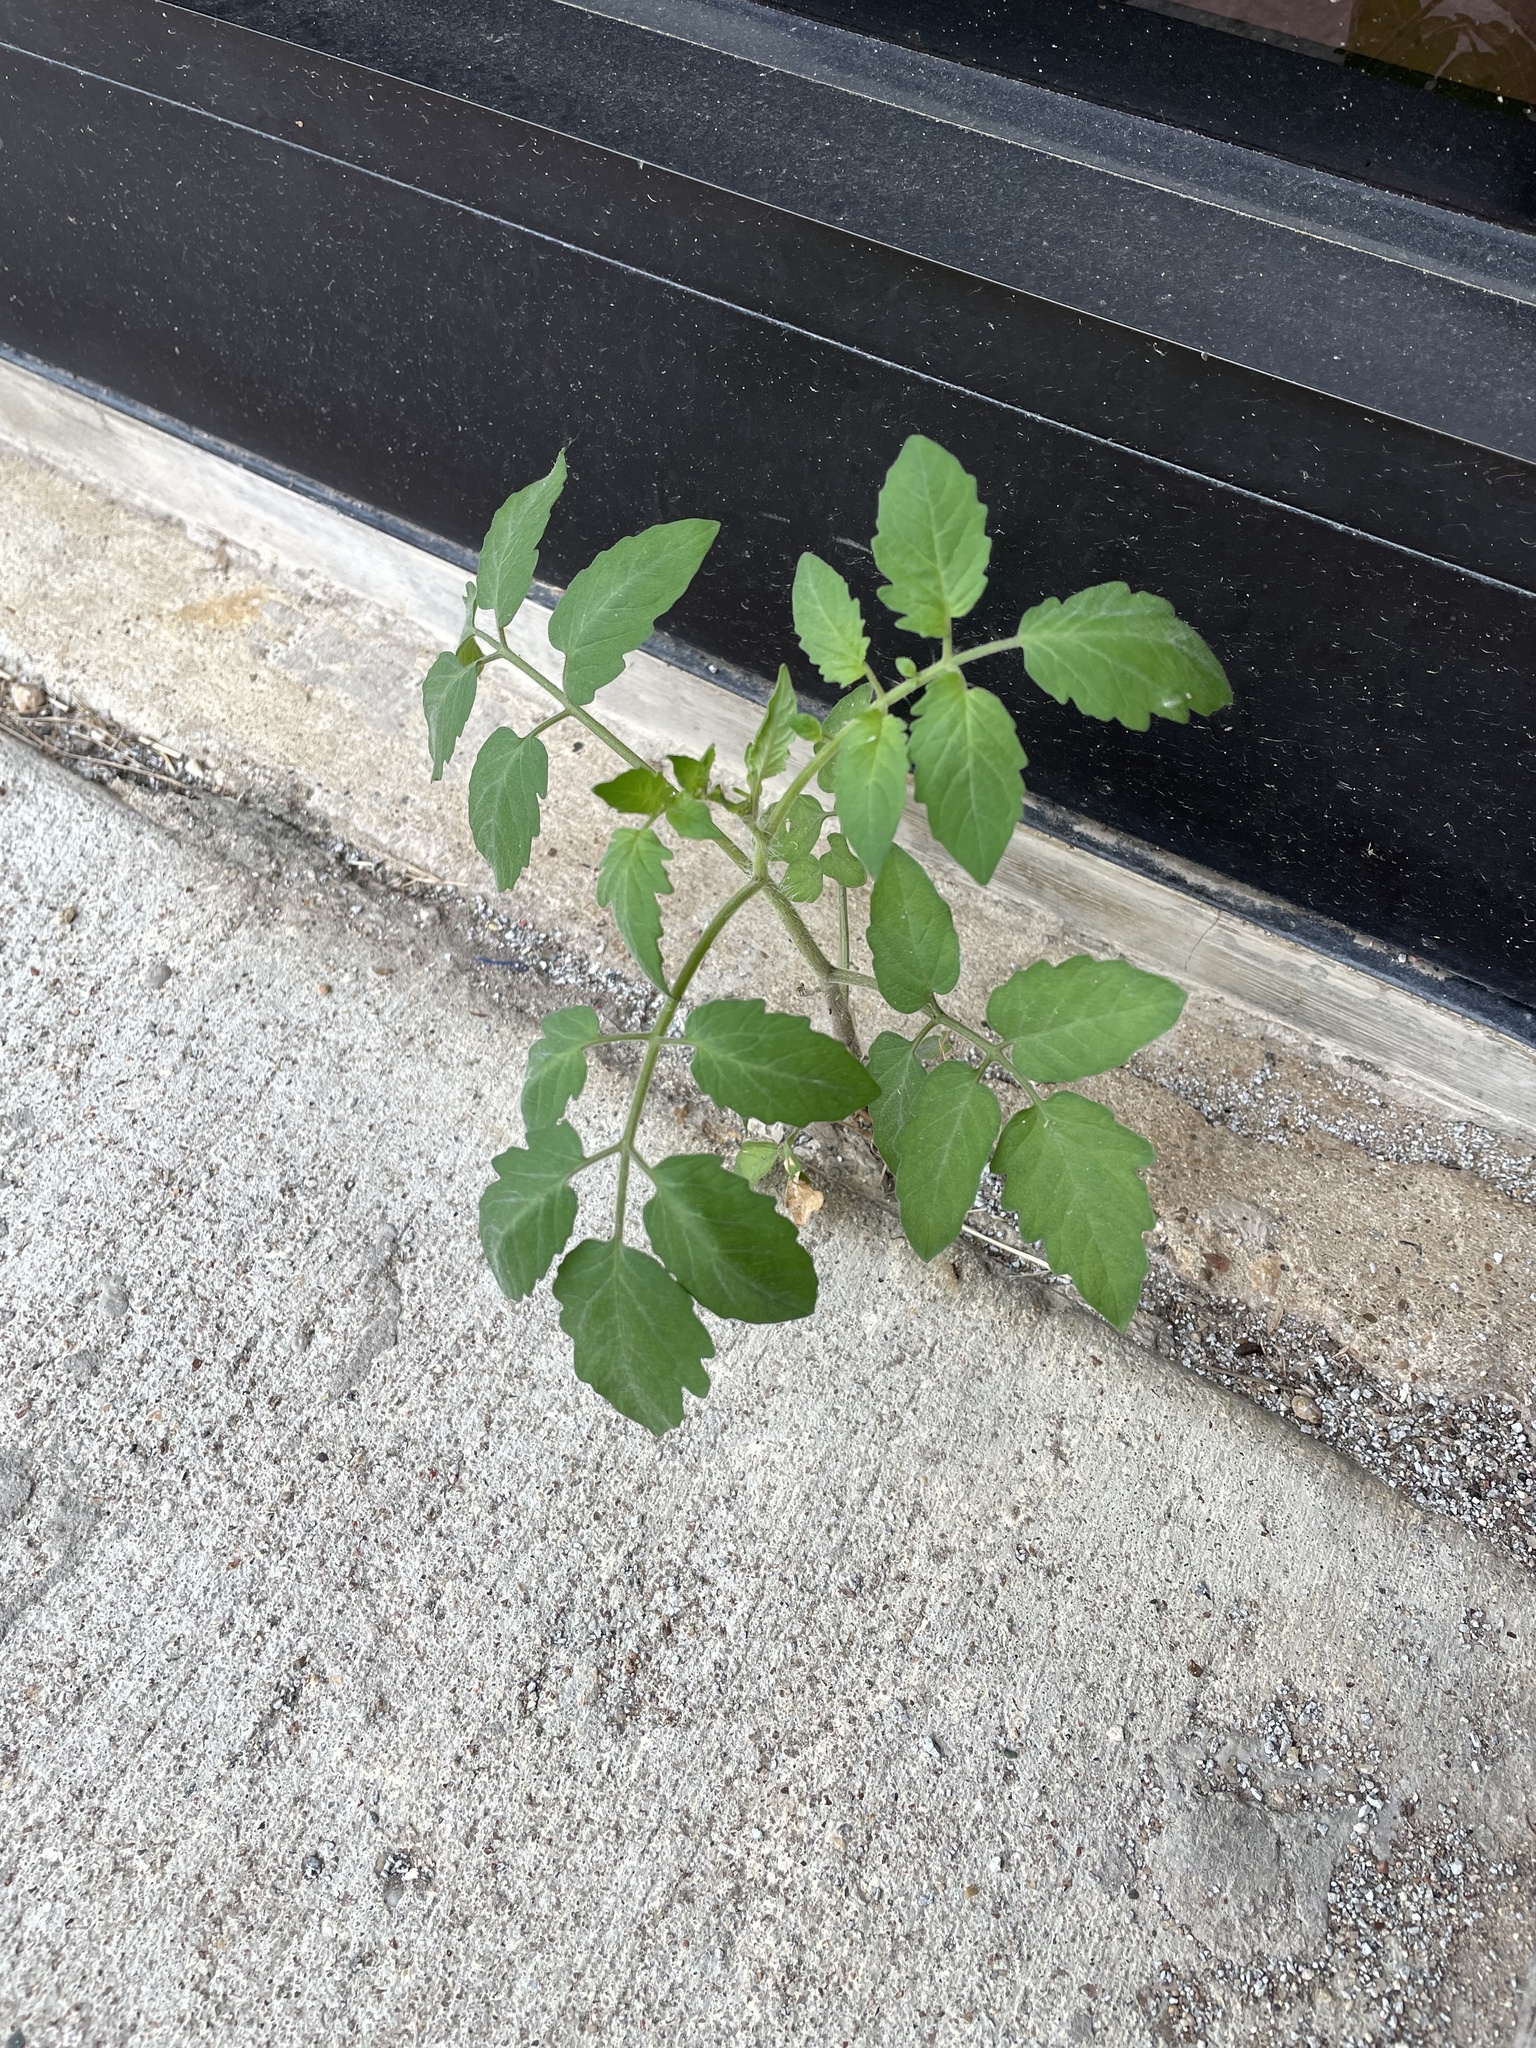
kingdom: Plantae
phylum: Tracheophyta
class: Magnoliopsida
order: Solanales
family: Solanaceae
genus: Solanum
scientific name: Solanum lycopersicum
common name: Garden tomato
